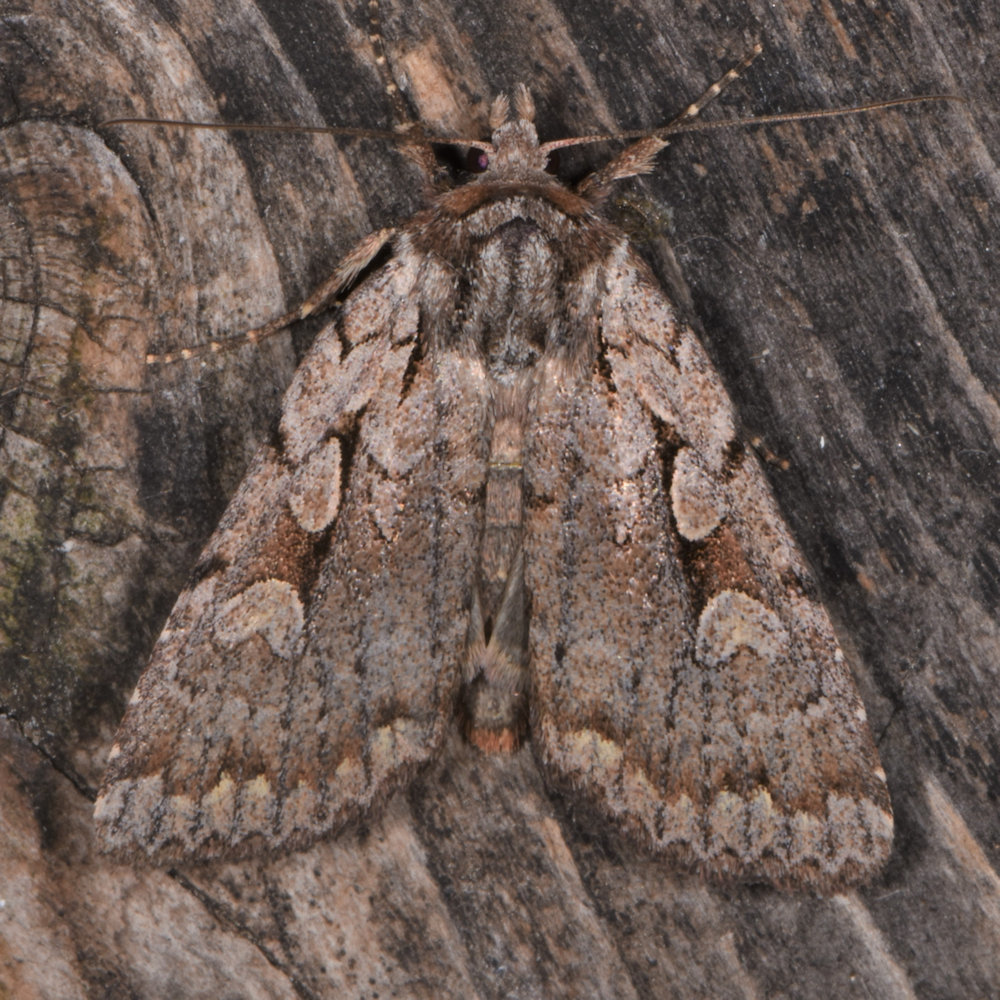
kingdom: Animalia
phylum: Arthropoda
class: Insecta
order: Lepidoptera
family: Noctuidae
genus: Xestia
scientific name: Xestia badicollis
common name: Northern variable dart
